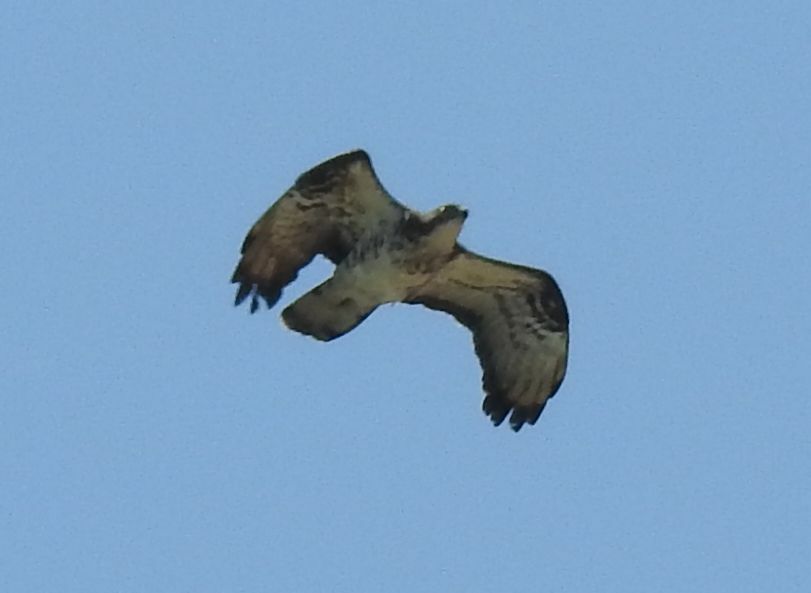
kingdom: Animalia
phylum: Chordata
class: Aves
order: Accipitriformes
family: Accipitridae
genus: Pernis
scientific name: Pernis apivorus
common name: European honey buzzard
